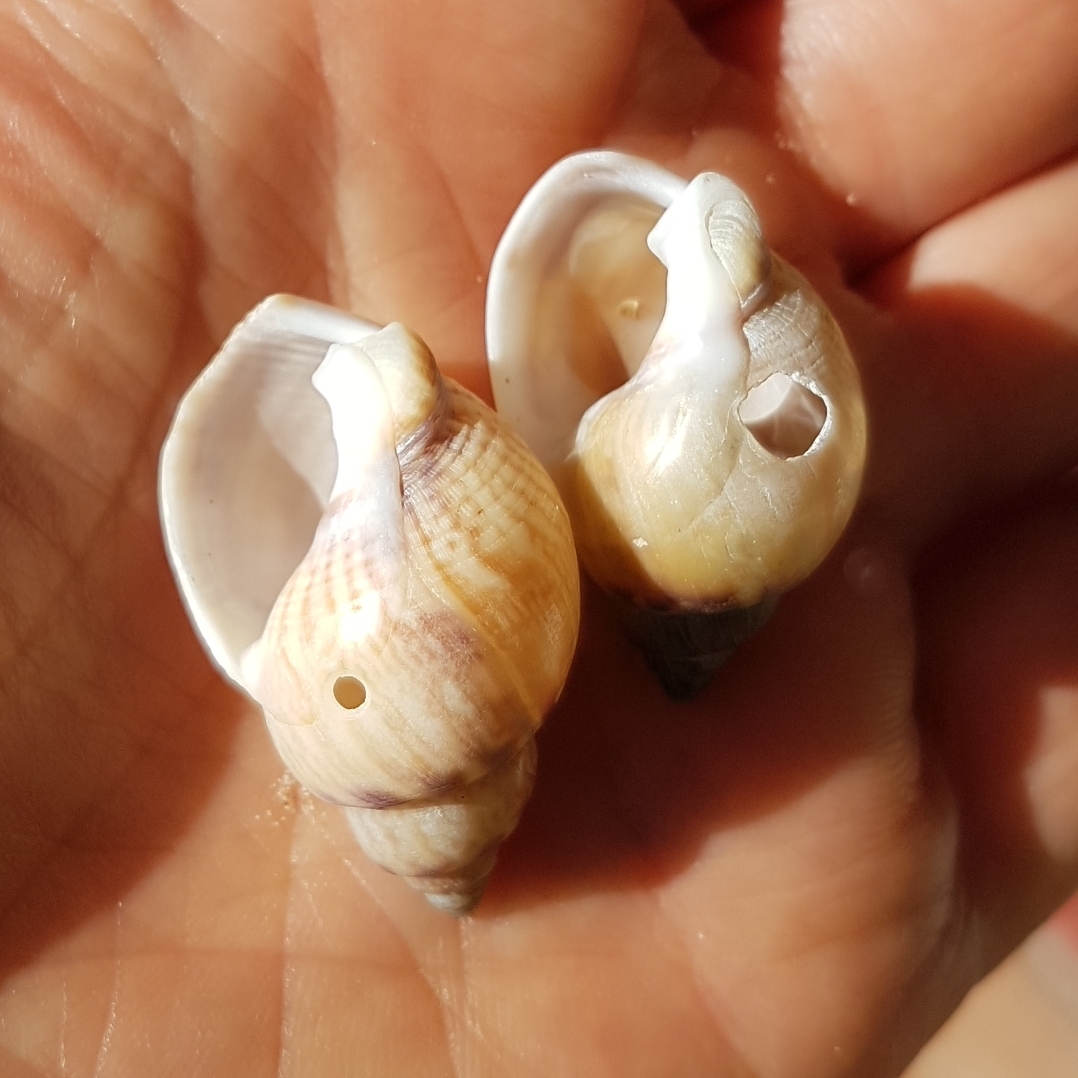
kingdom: Animalia
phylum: Mollusca
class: Gastropoda
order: Neogastropoda
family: Nassariidae
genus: Tritia
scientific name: Tritia mutabilis
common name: Mutable nassa
